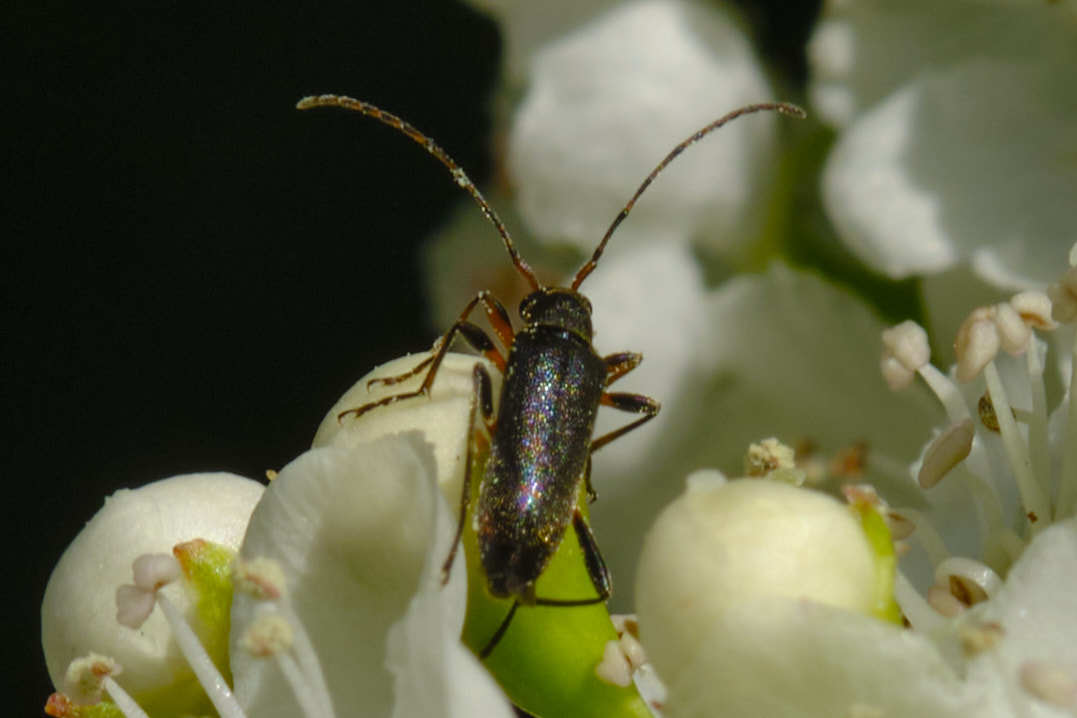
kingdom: Animalia
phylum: Arthropoda
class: Insecta
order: Coleoptera
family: Cerambycidae
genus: Grammoptera
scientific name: Grammoptera ruficornis
